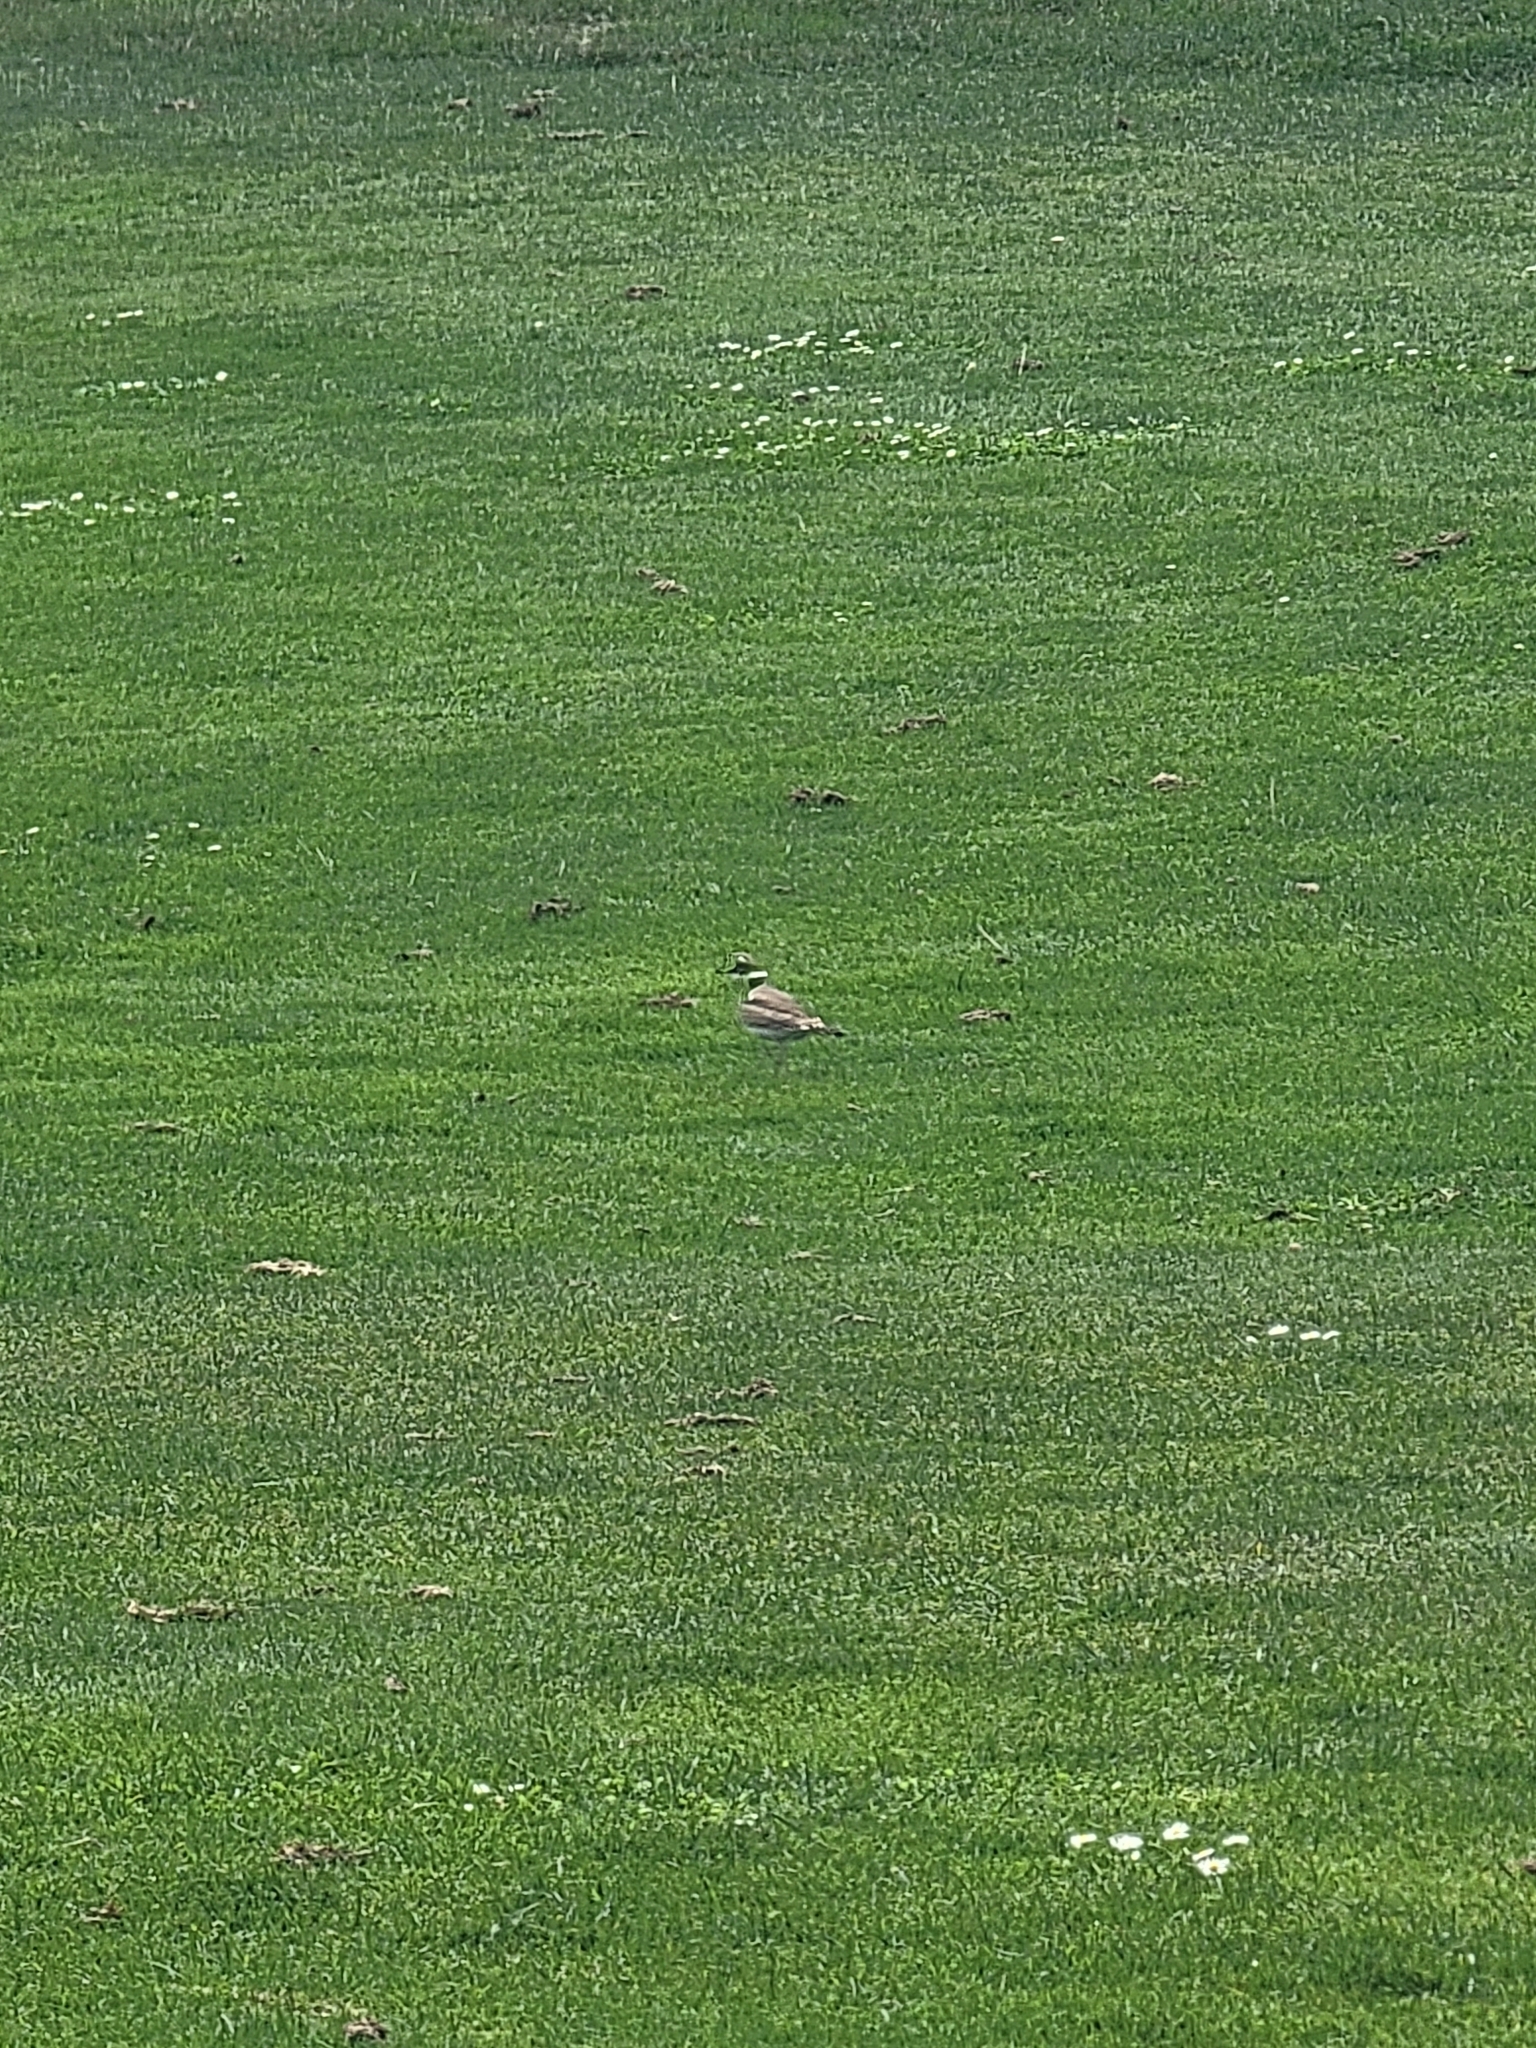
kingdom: Animalia
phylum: Chordata
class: Aves
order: Charadriiformes
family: Charadriidae
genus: Charadrius
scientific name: Charadrius vociferus
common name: Killdeer
